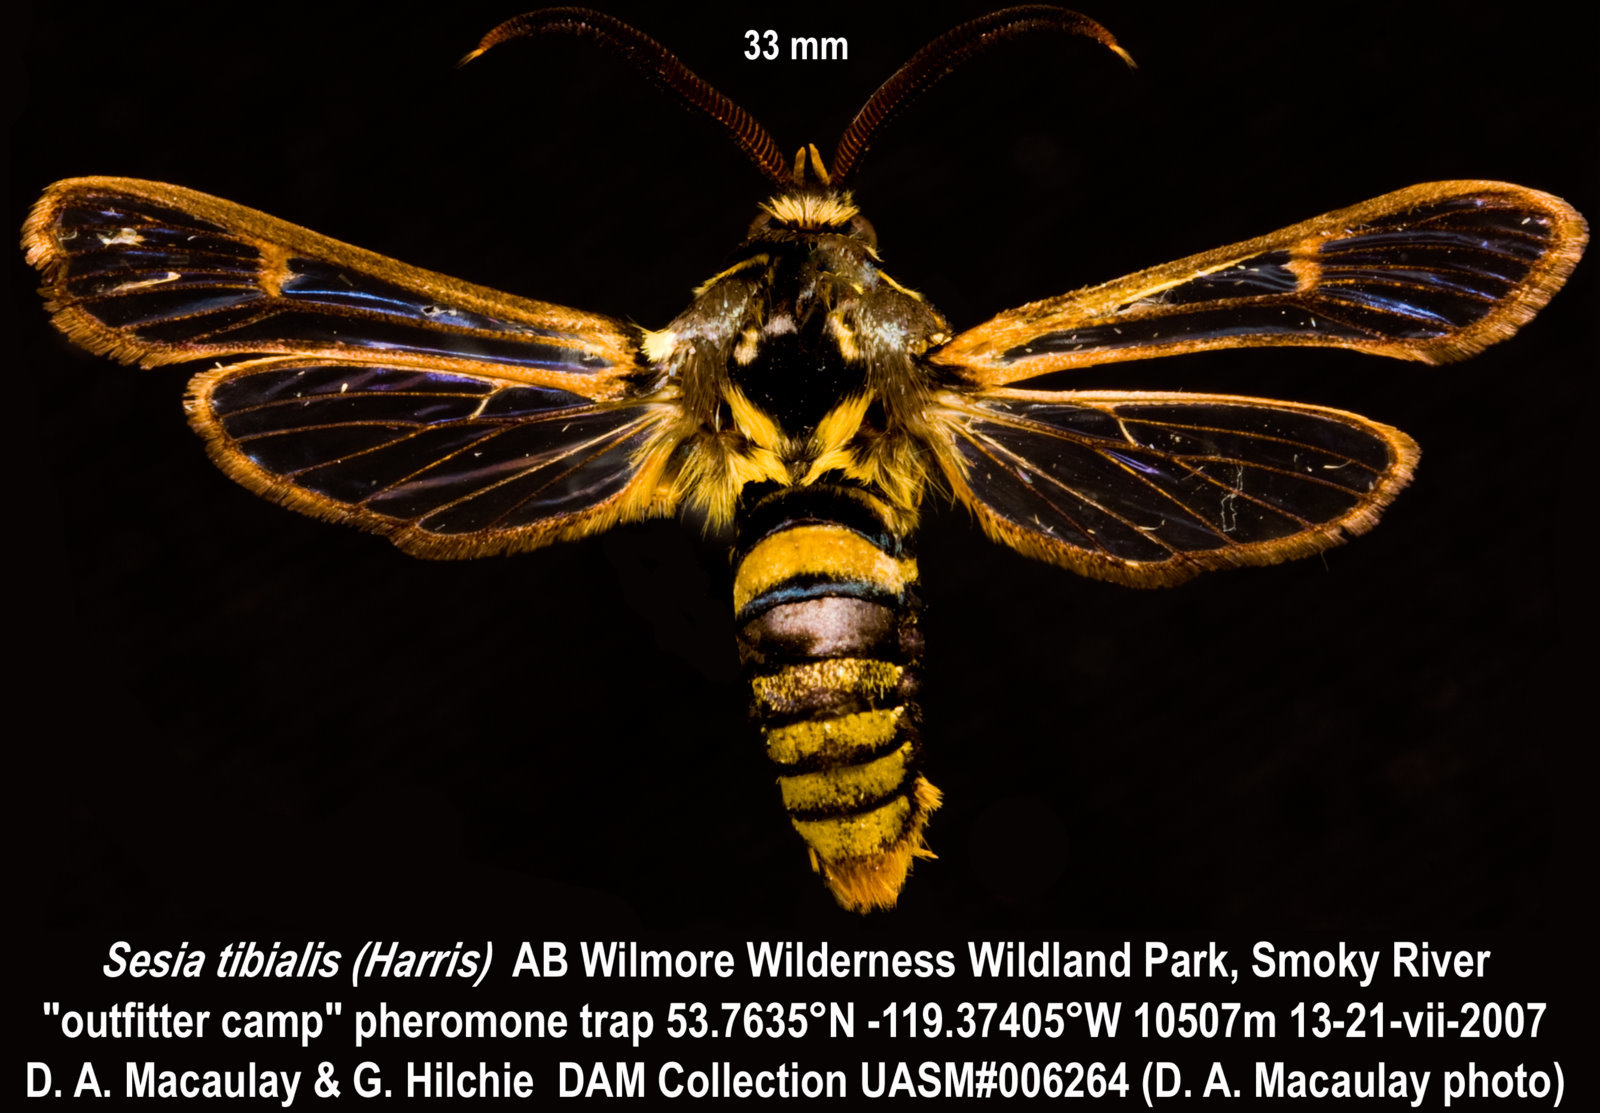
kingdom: Animalia
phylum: Arthropoda
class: Insecta
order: Lepidoptera
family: Sesiidae
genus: Sesia
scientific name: Sesia tibiale
